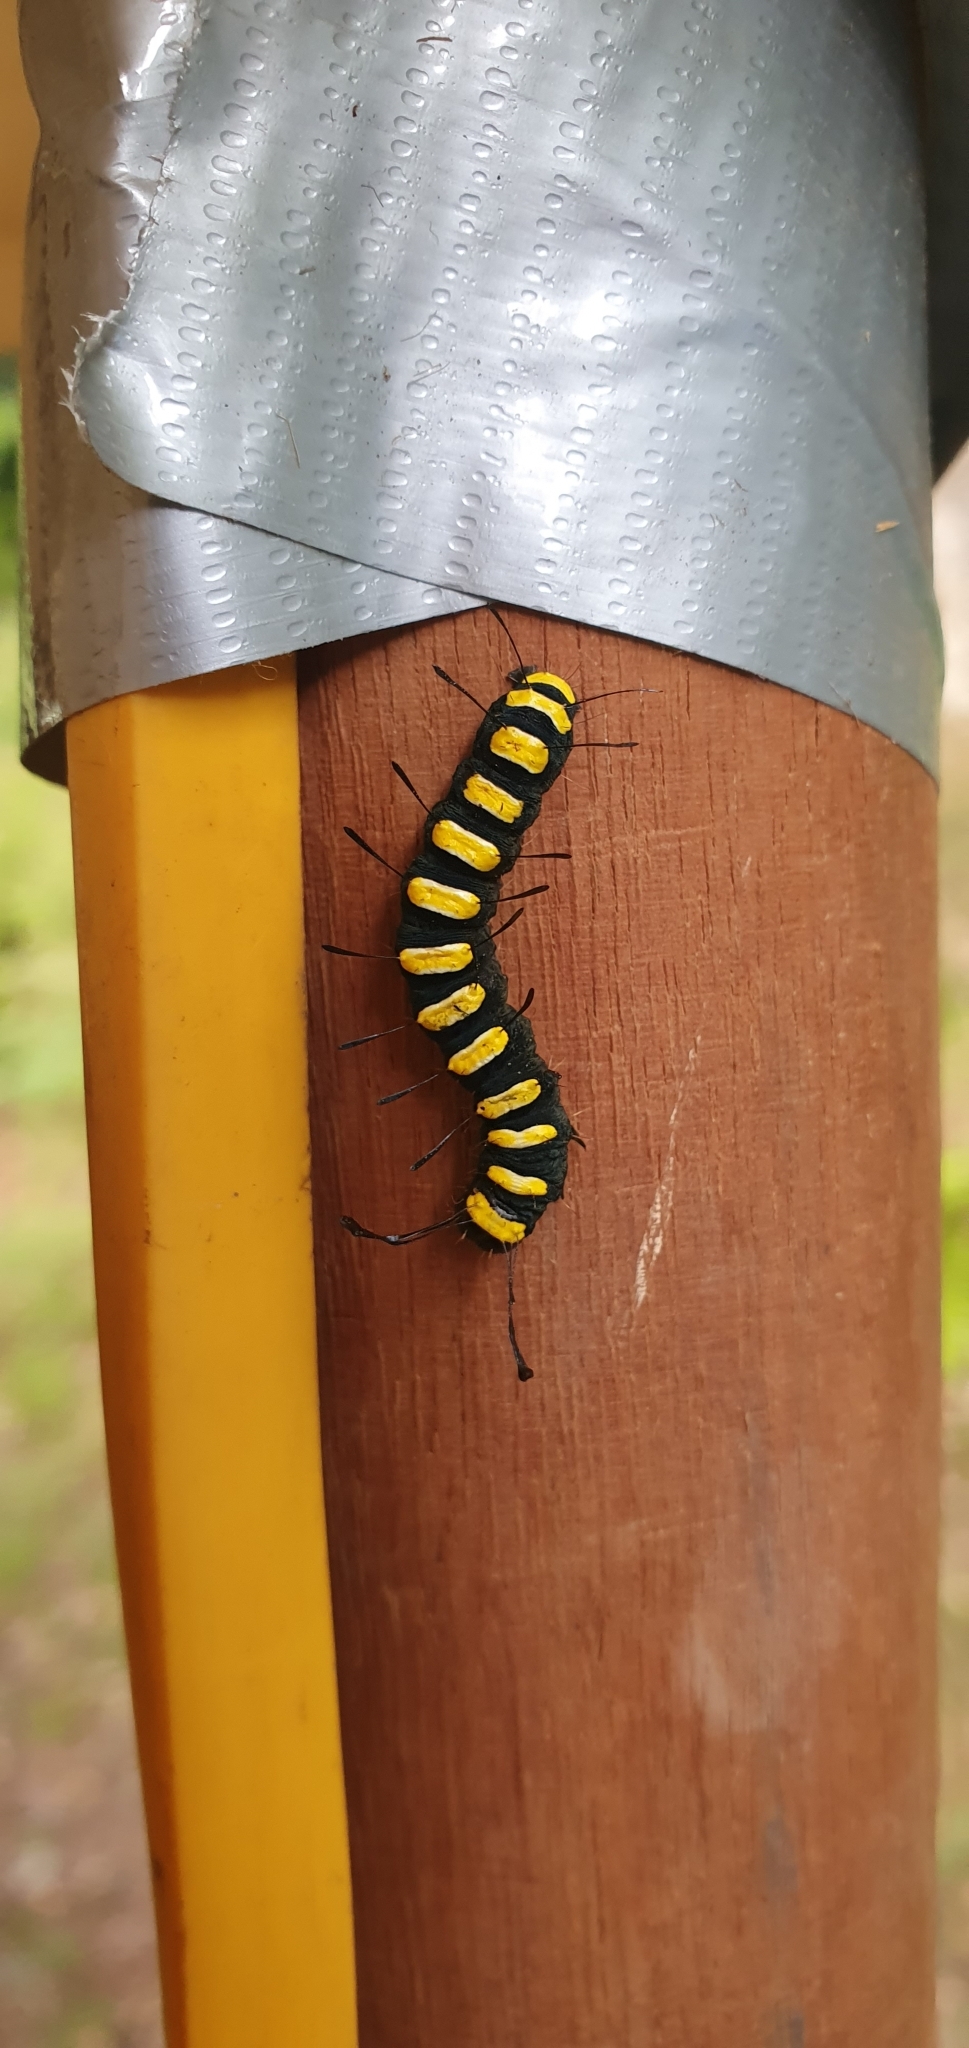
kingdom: Animalia
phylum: Arthropoda
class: Insecta
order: Lepidoptera
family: Noctuidae
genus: Acronicta
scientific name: Acronicta alni
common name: Alder moth
